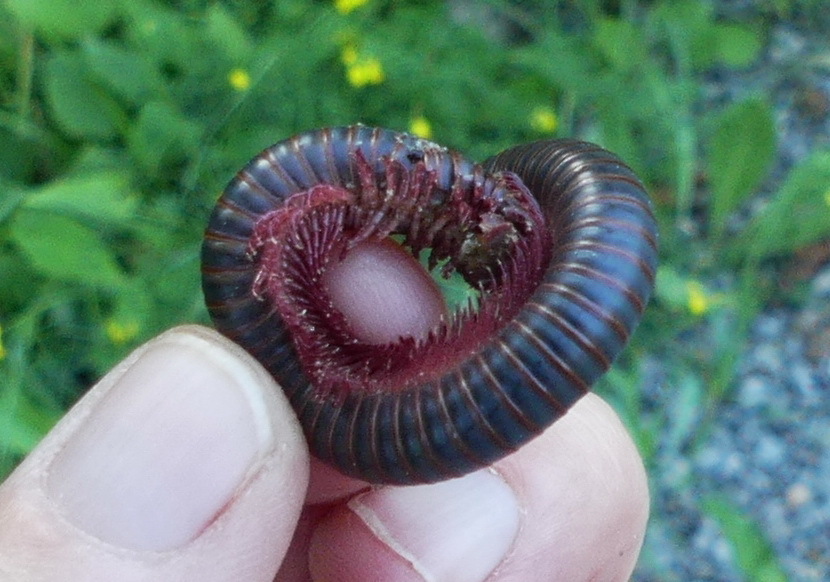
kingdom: Animalia
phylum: Arthropoda
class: Diplopoda
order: Spirobolida
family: Spirobolidae
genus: Narceus
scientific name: Narceus
